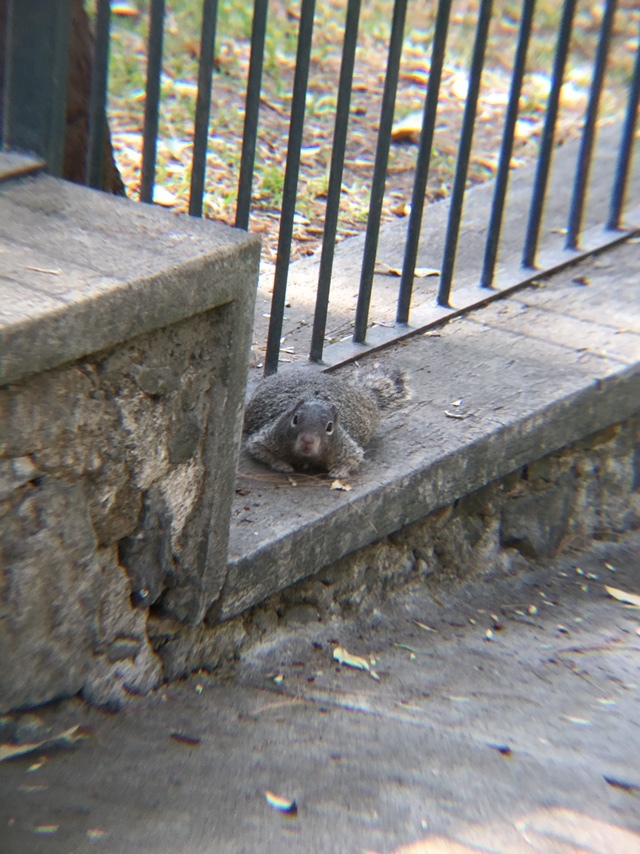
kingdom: Animalia
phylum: Chordata
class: Mammalia
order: Rodentia
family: Sciuridae
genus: Otospermophilus
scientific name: Otospermophilus variegatus
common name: Rock squirrel
